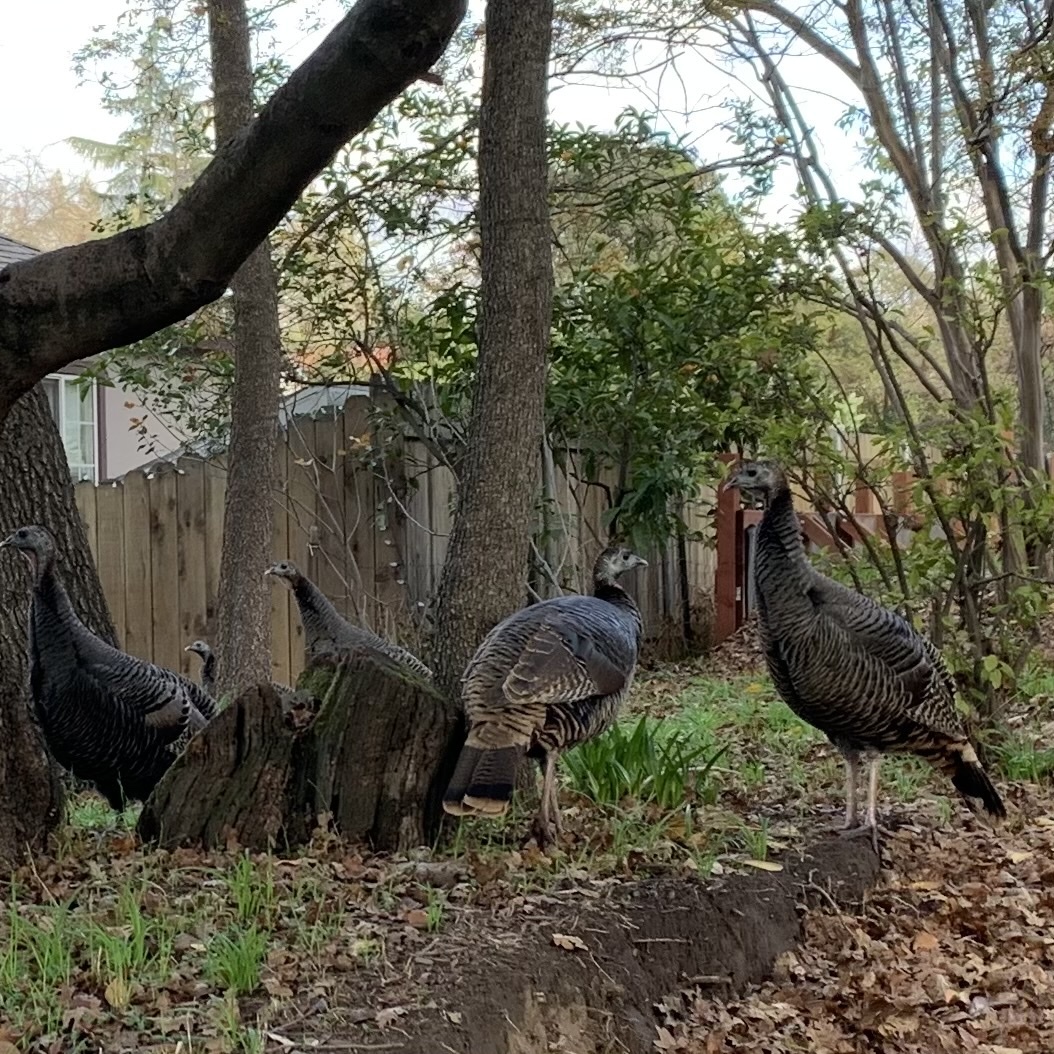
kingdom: Animalia
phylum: Chordata
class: Aves
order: Galliformes
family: Phasianidae
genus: Meleagris
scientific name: Meleagris gallopavo
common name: Wild turkey
